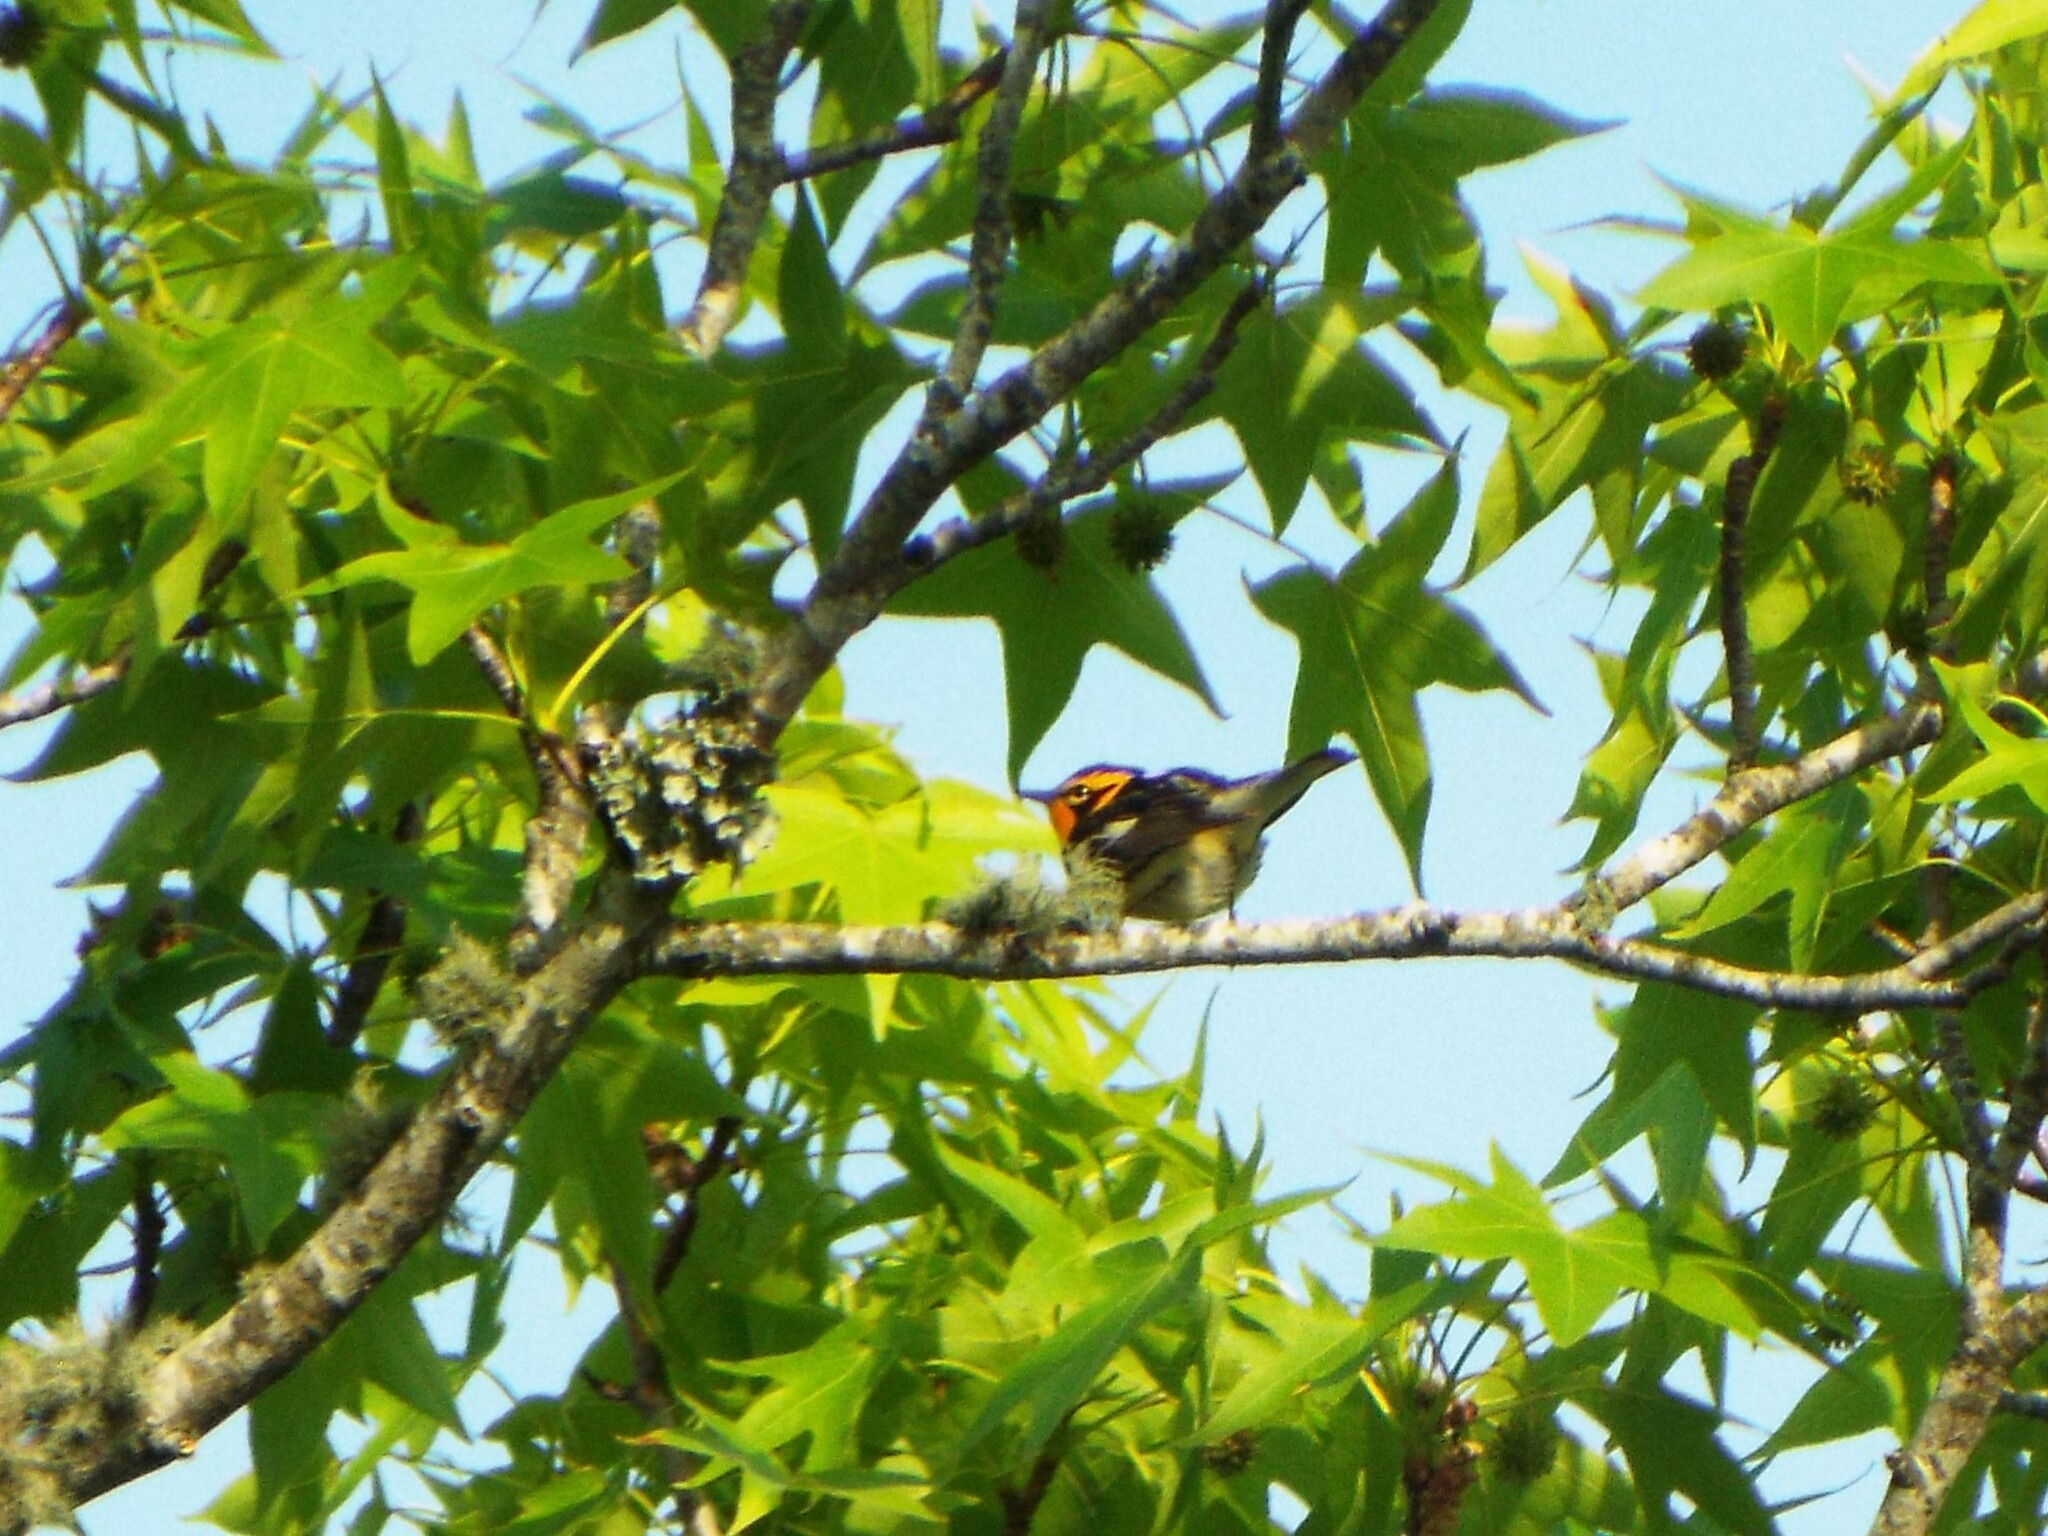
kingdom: Animalia
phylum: Chordata
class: Aves
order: Passeriformes
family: Parulidae
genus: Setophaga
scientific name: Setophaga fusca
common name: Blackburnian warbler
